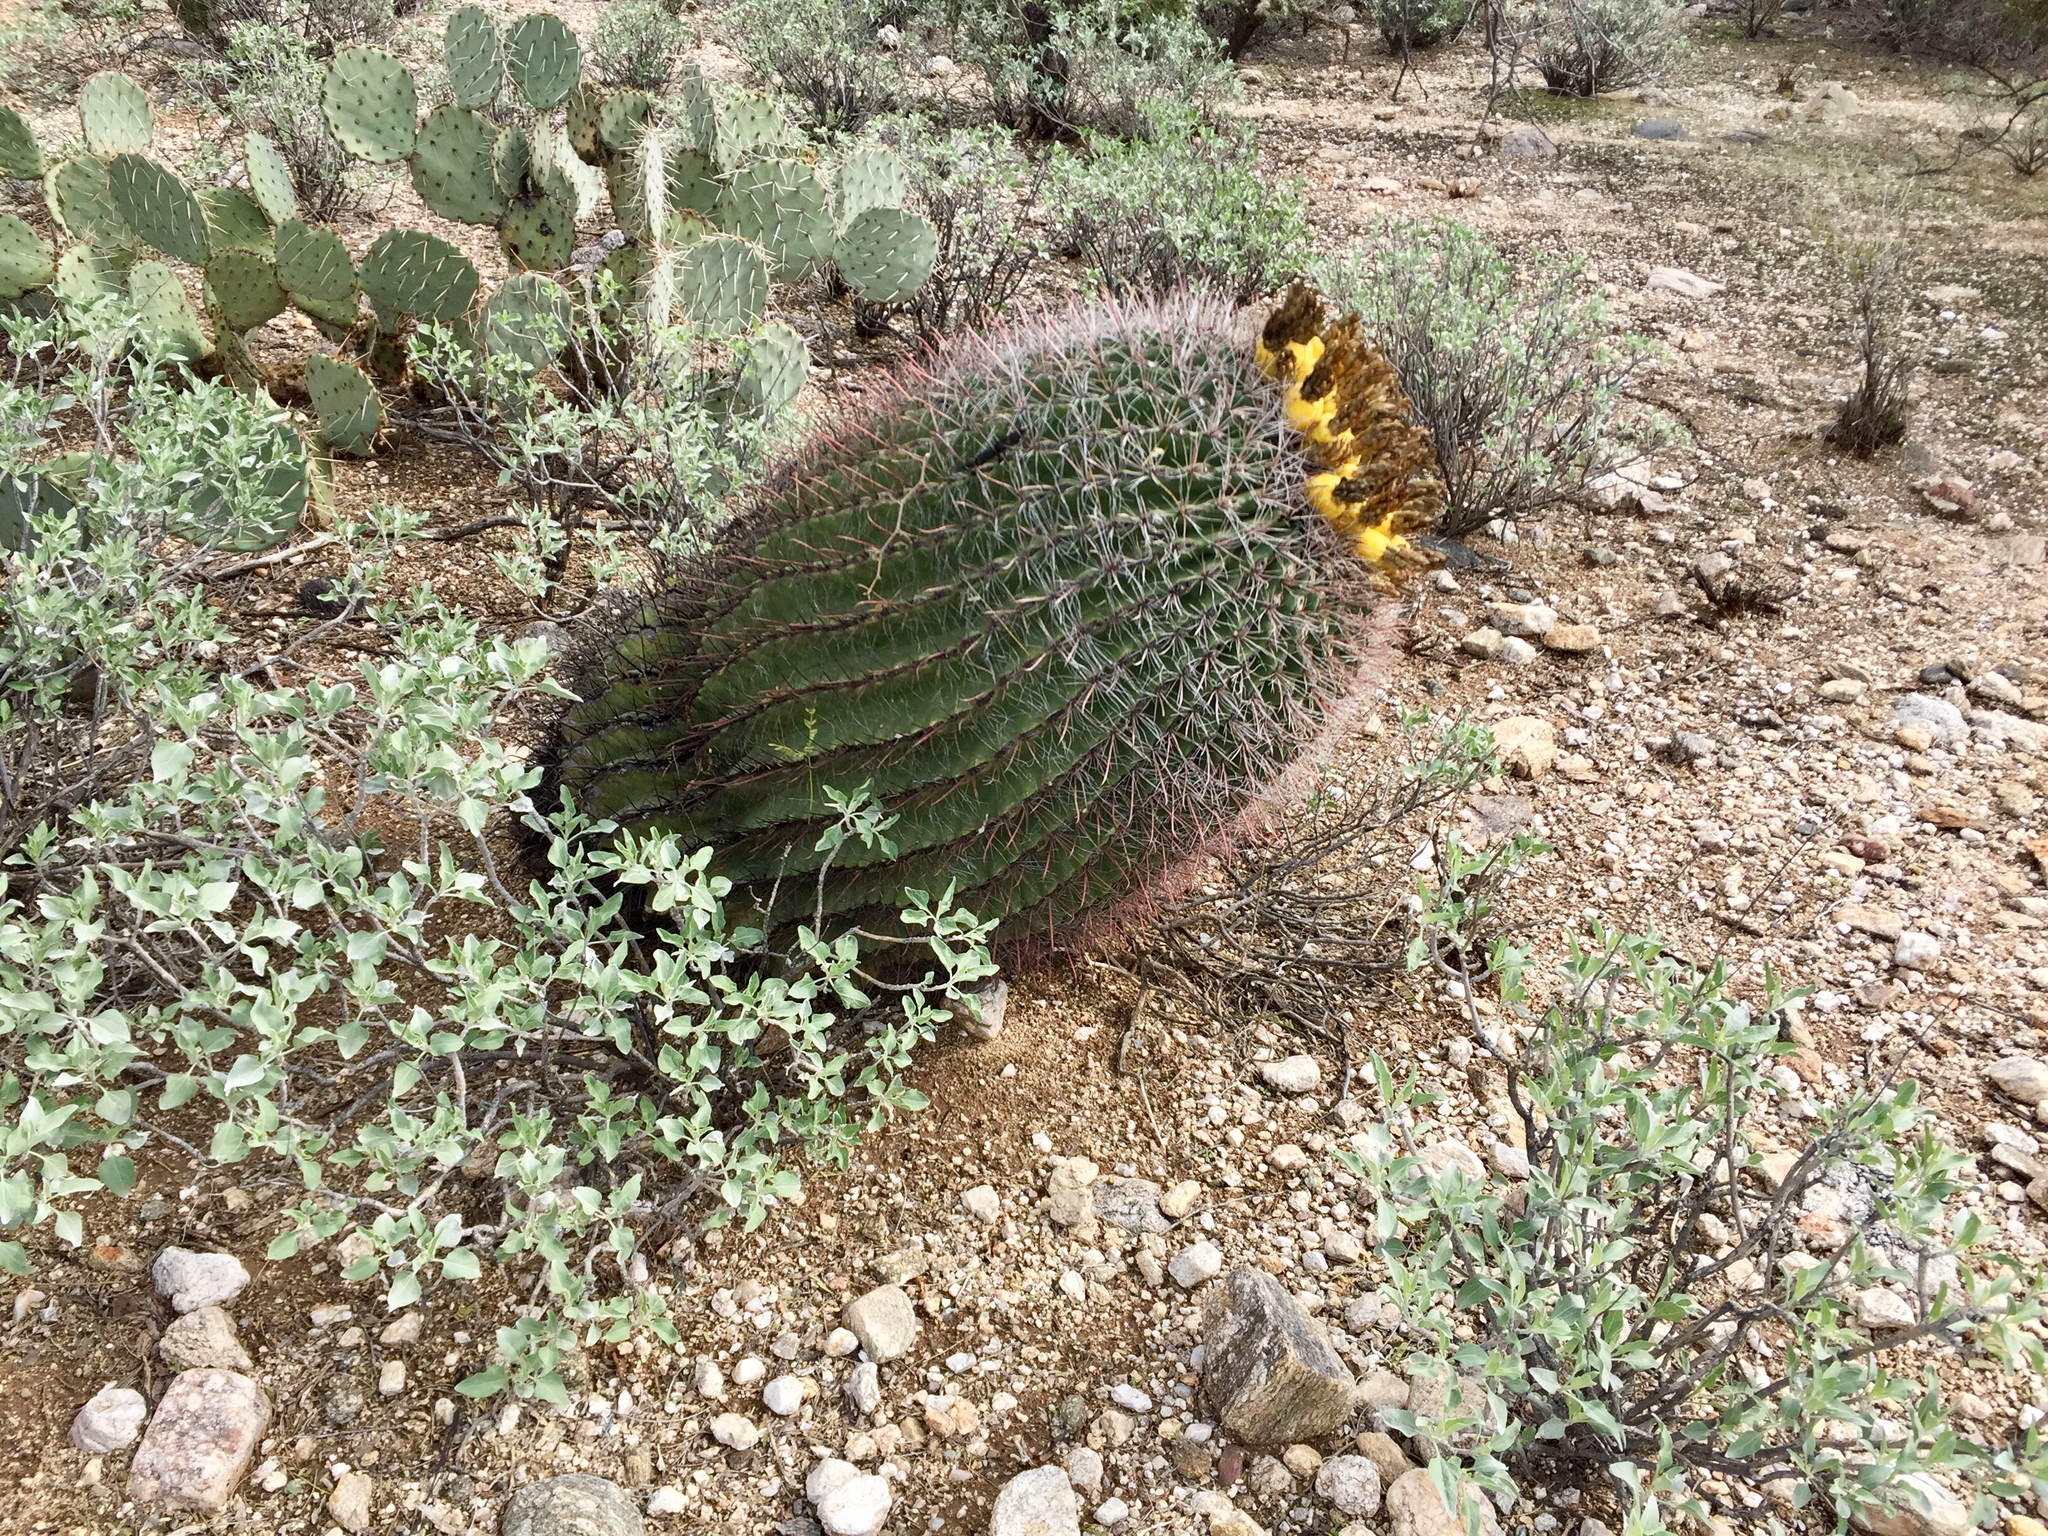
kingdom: Plantae
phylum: Tracheophyta
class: Magnoliopsida
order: Caryophyllales
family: Cactaceae
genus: Ferocactus
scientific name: Ferocactus wislizeni
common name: Candy barrel cactus
